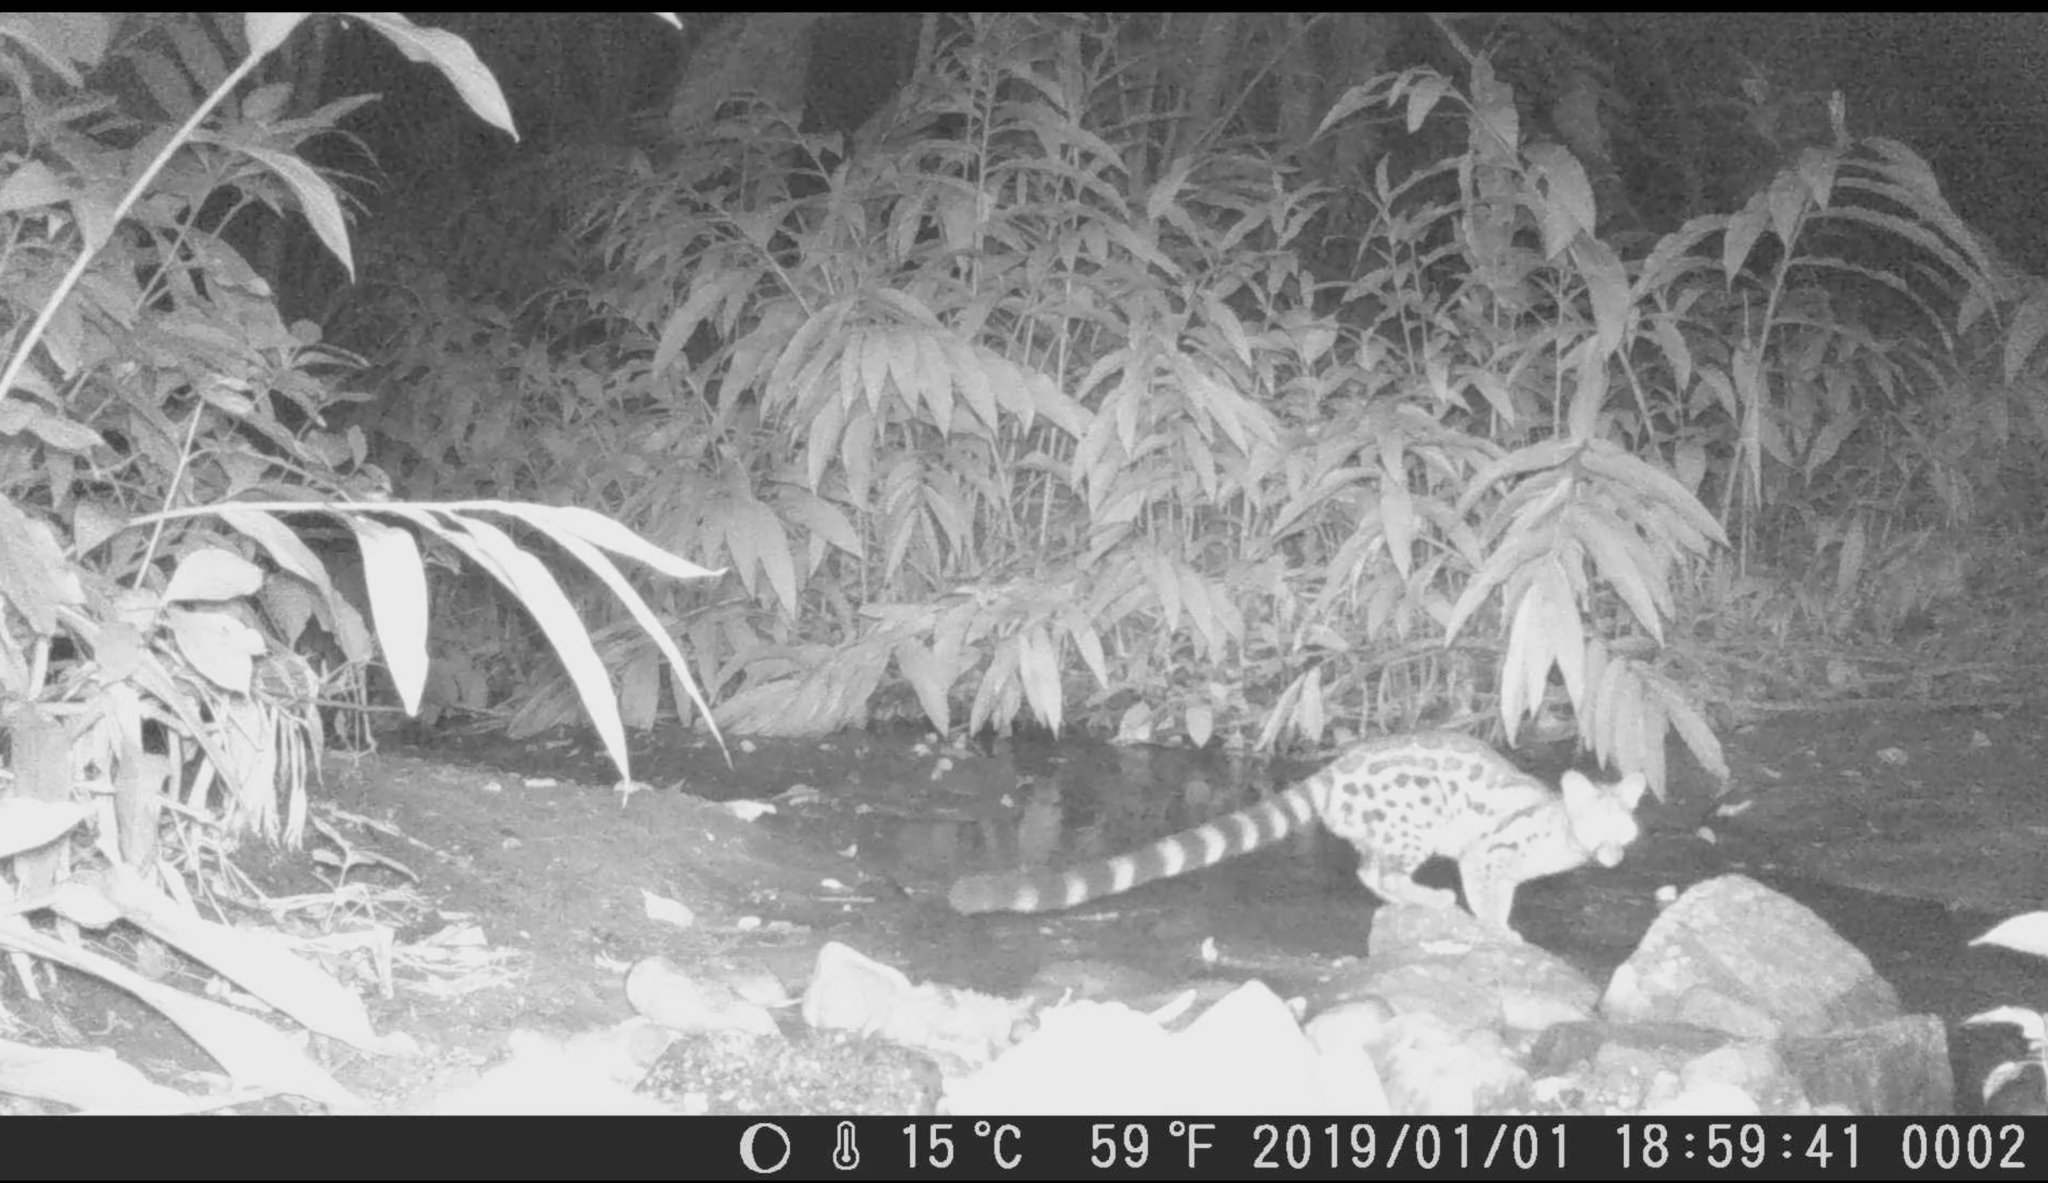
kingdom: Animalia
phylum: Chordata
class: Mammalia
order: Carnivora
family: Viverridae
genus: Genetta
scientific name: Genetta maculata
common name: Rusty-spotted genet
